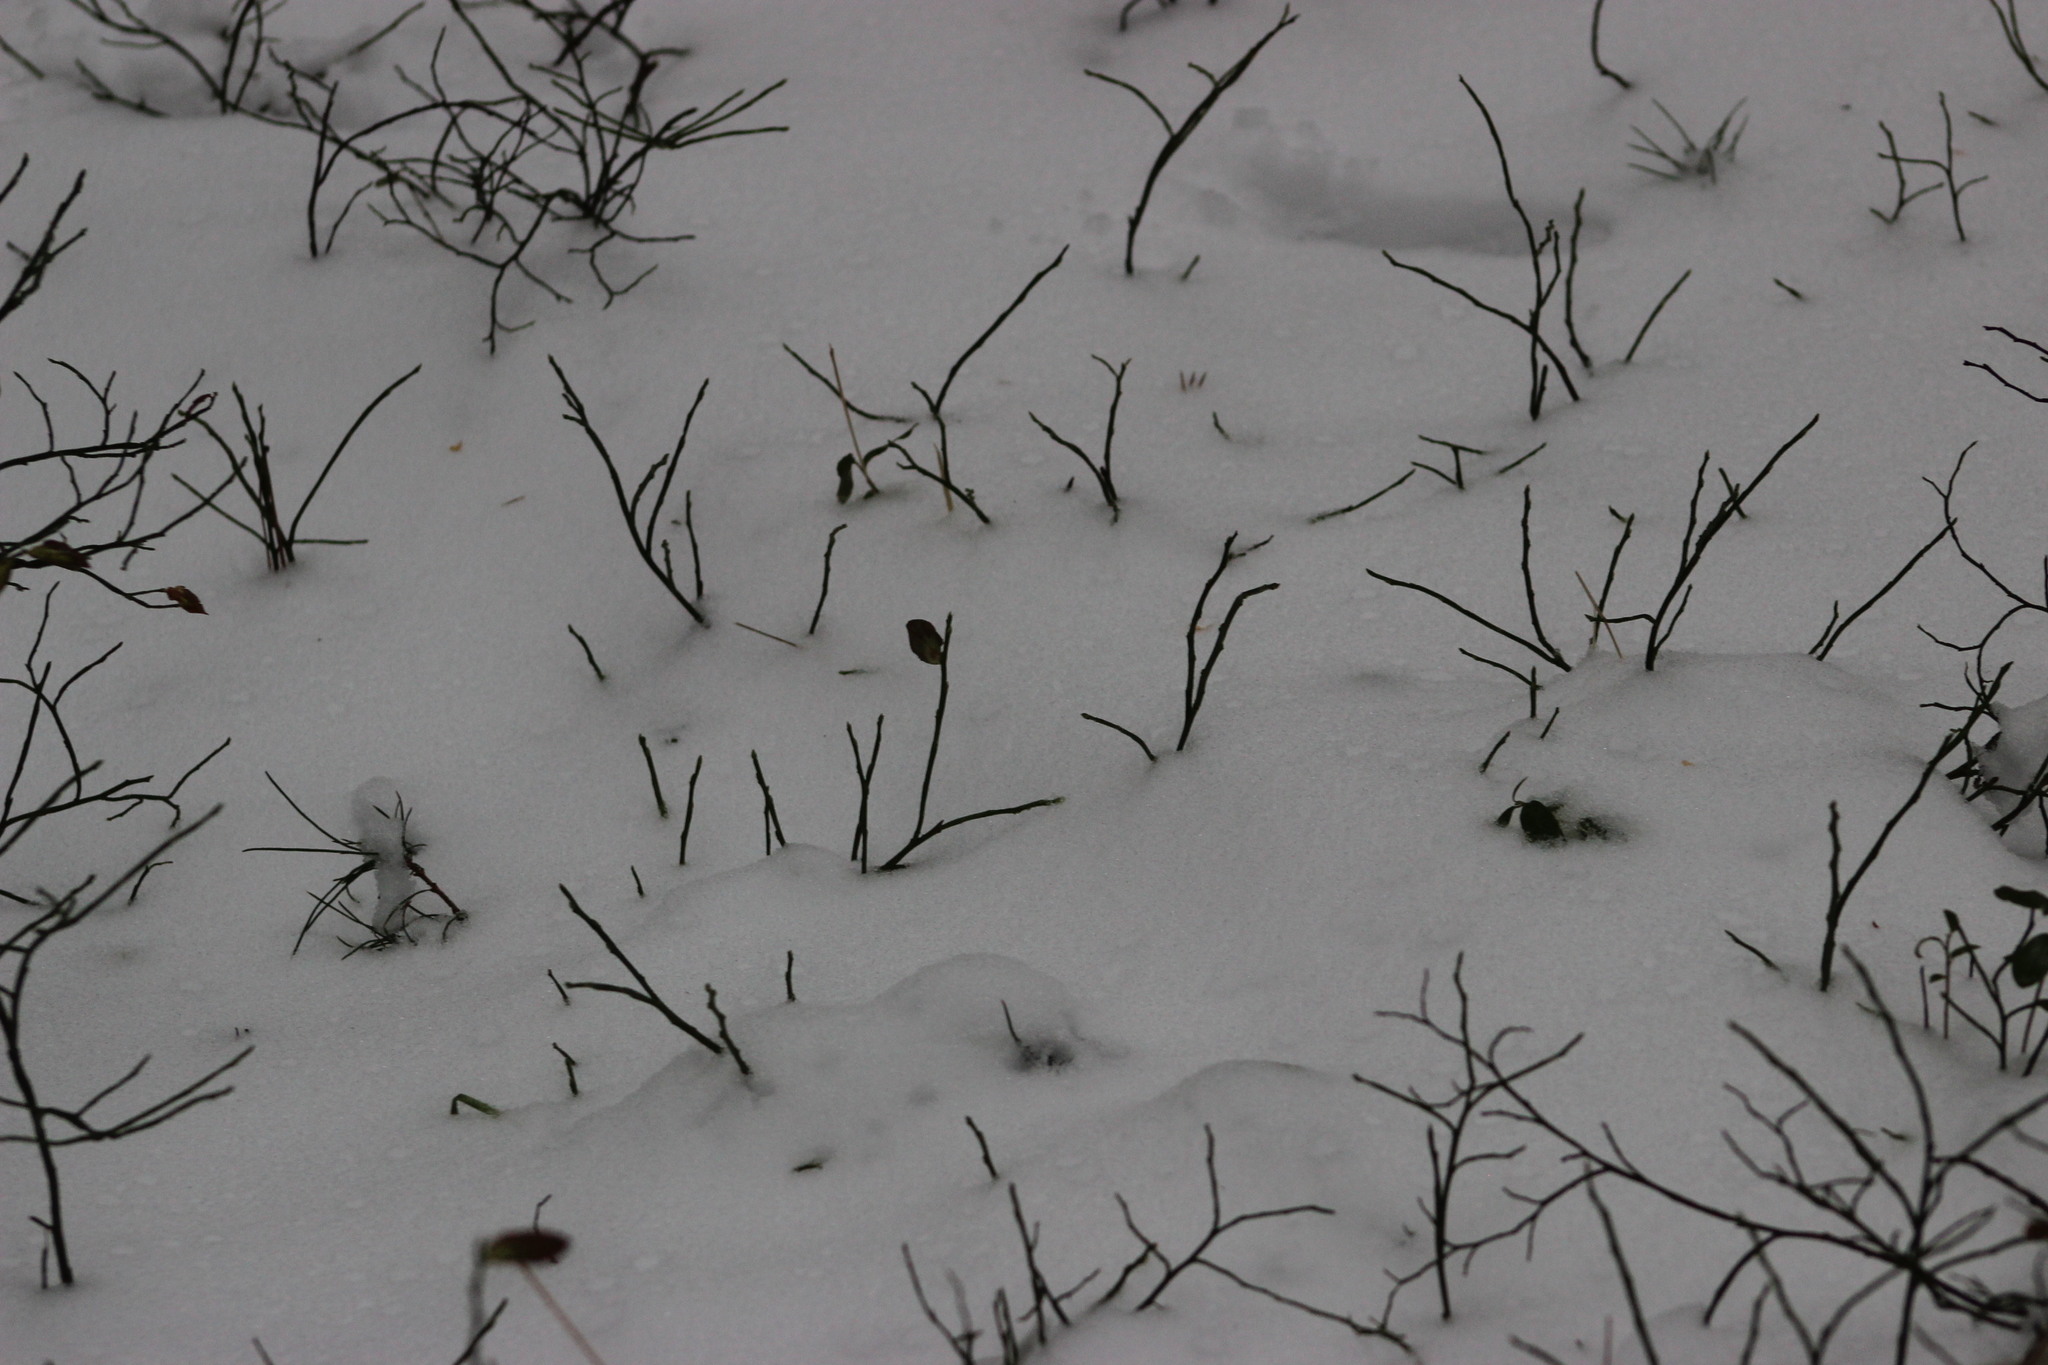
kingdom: Plantae
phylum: Tracheophyta
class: Magnoliopsida
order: Ericales
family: Ericaceae
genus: Vaccinium
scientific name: Vaccinium myrtillus
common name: Bilberry
